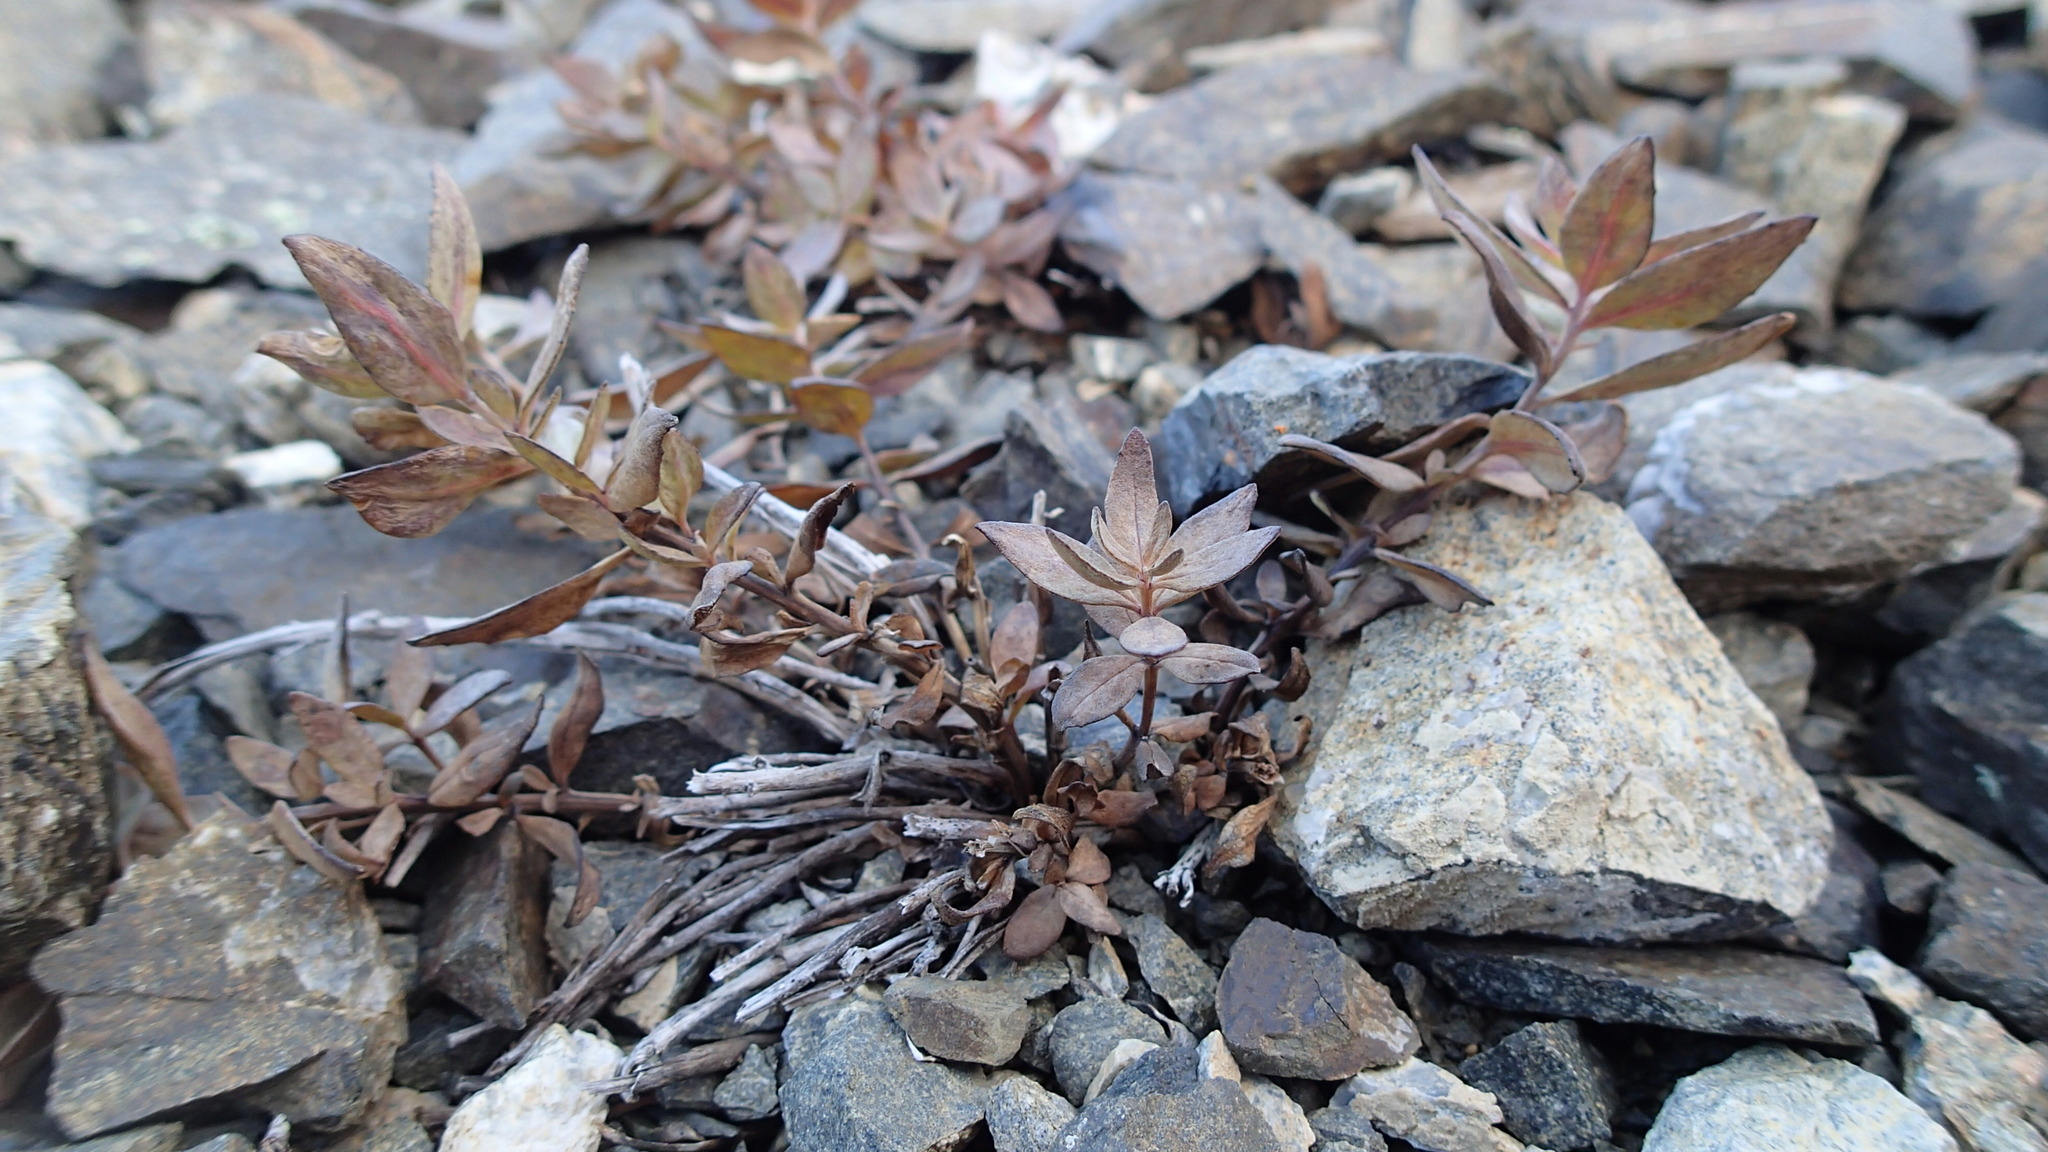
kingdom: Plantae
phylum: Tracheophyta
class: Magnoliopsida
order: Myrtales
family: Onagraceae
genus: Chamaenerion
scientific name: Chamaenerion latifolium
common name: Dwarf fireweed
